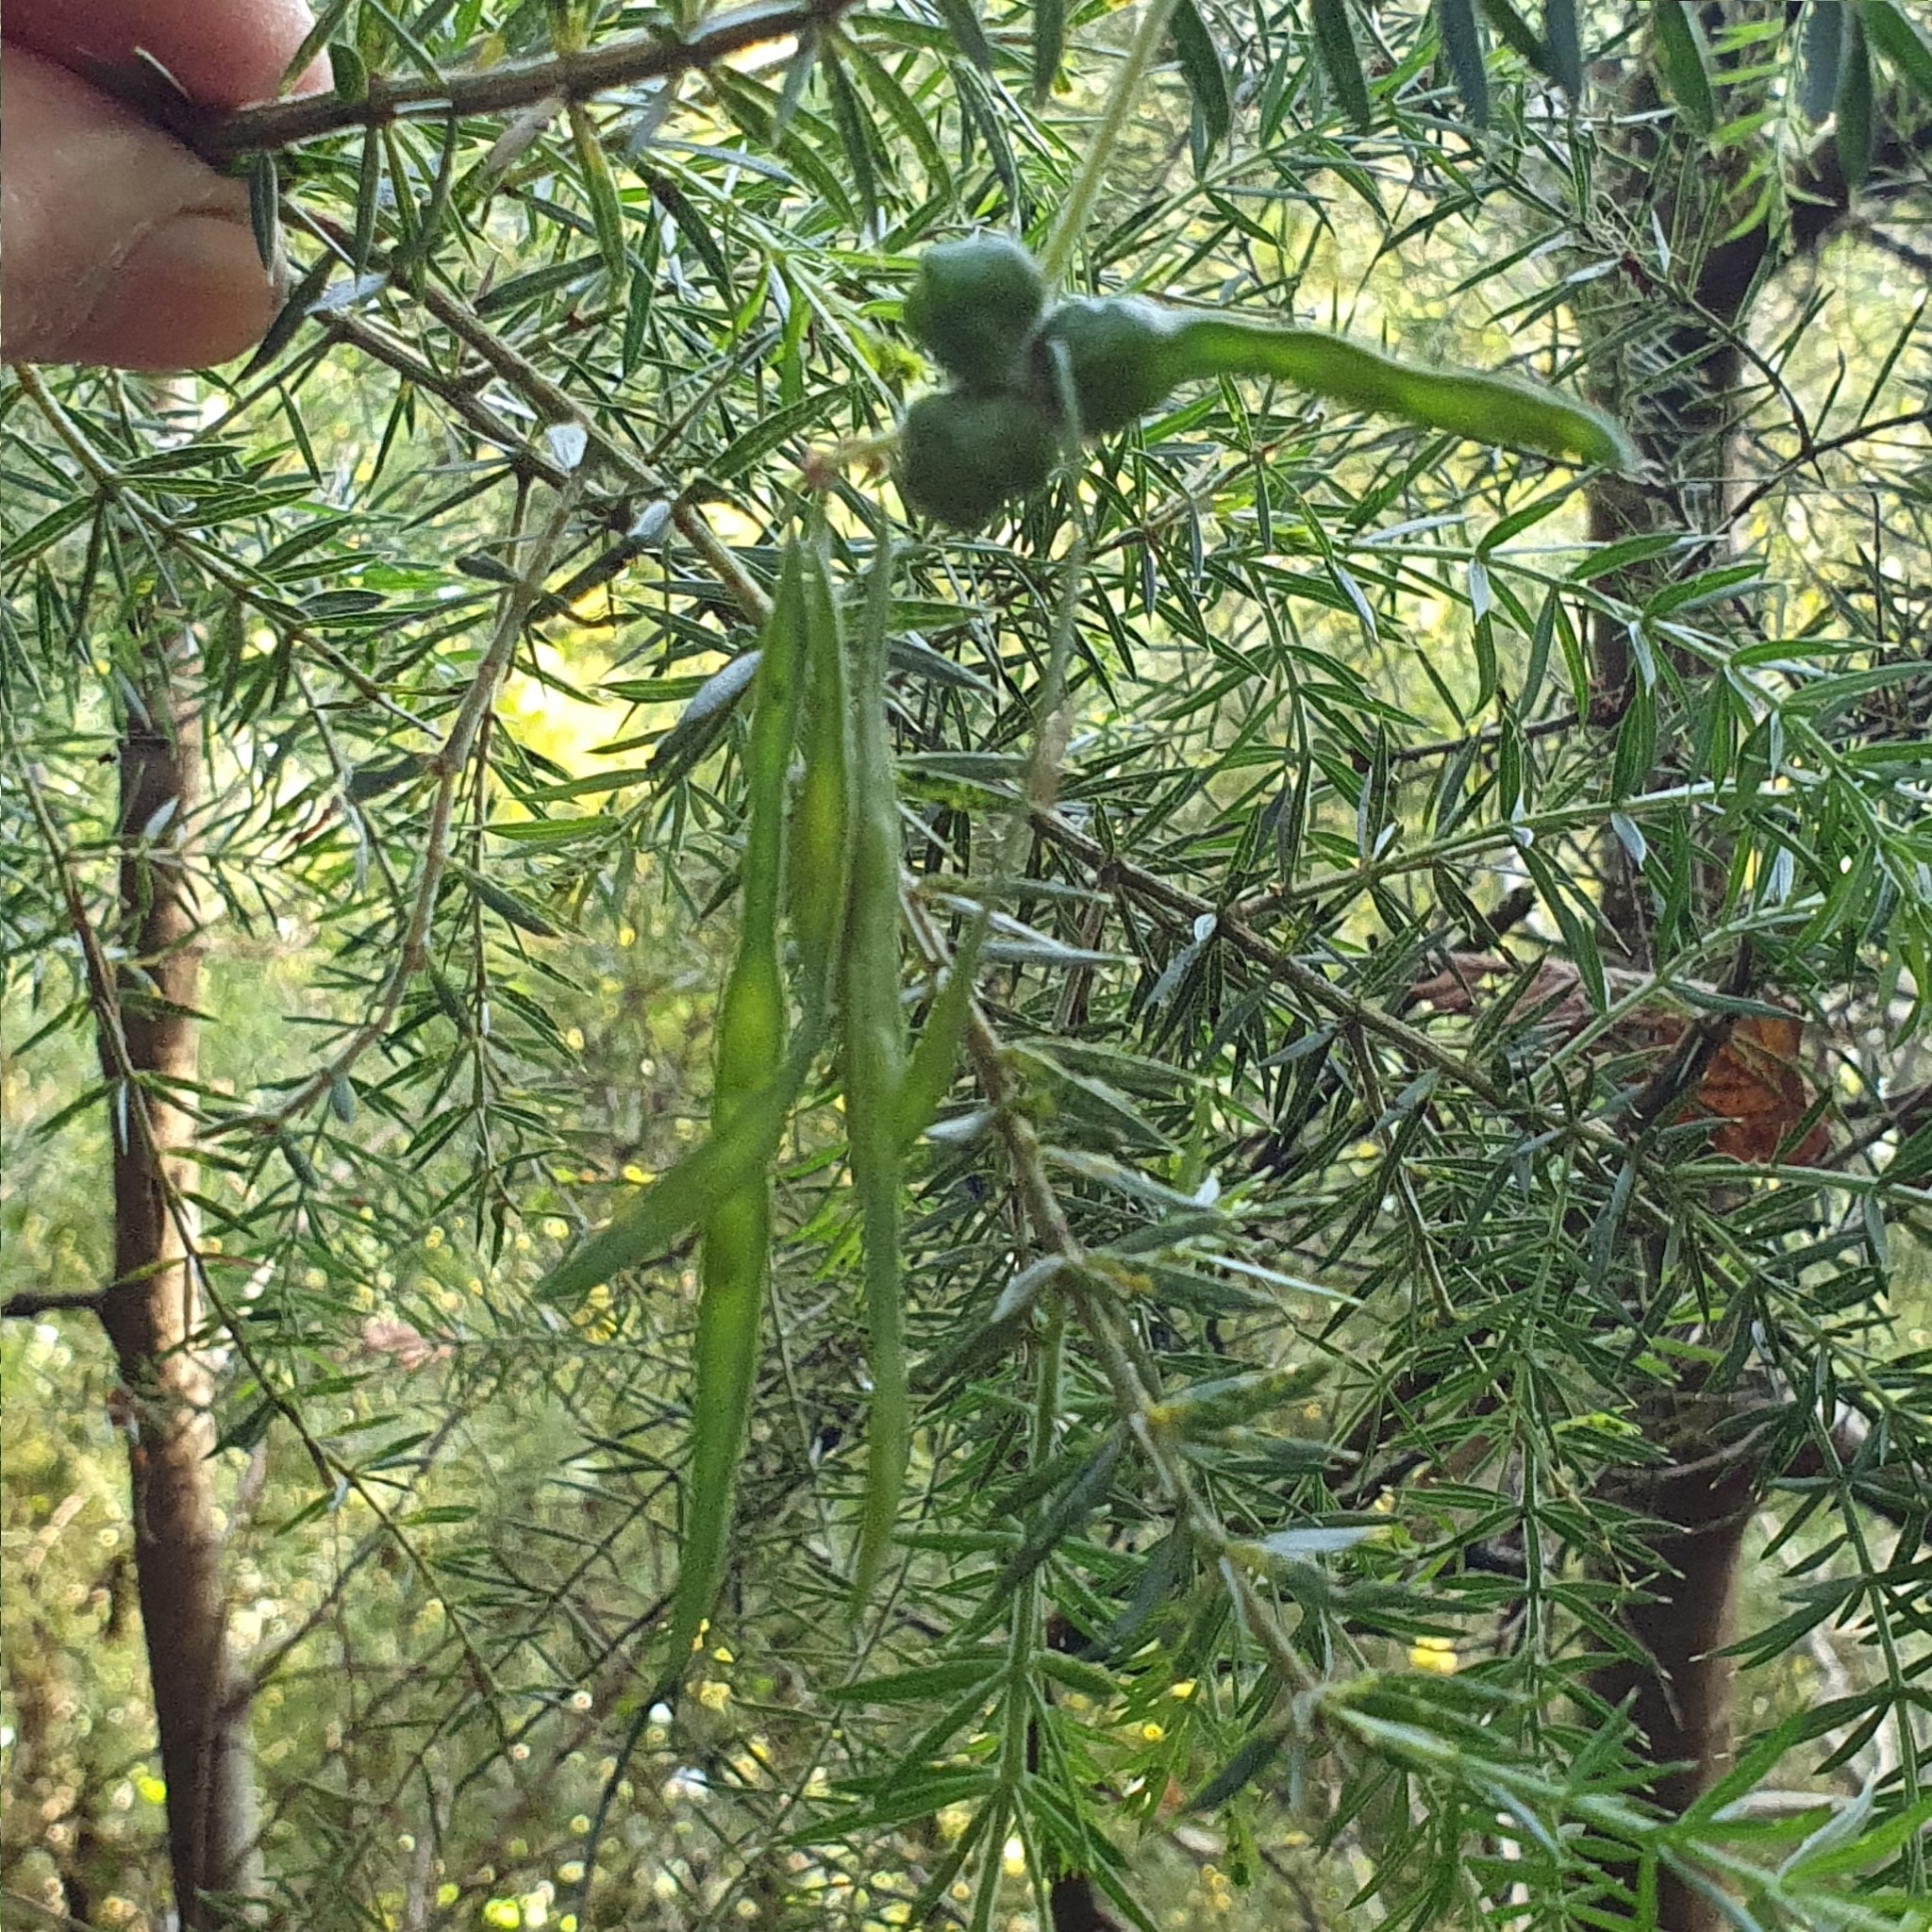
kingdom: Plantae
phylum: Tracheophyta
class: Magnoliopsida
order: Fabales
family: Fabaceae
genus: Acacia
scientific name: Acacia verticillata
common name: Prickly moses
